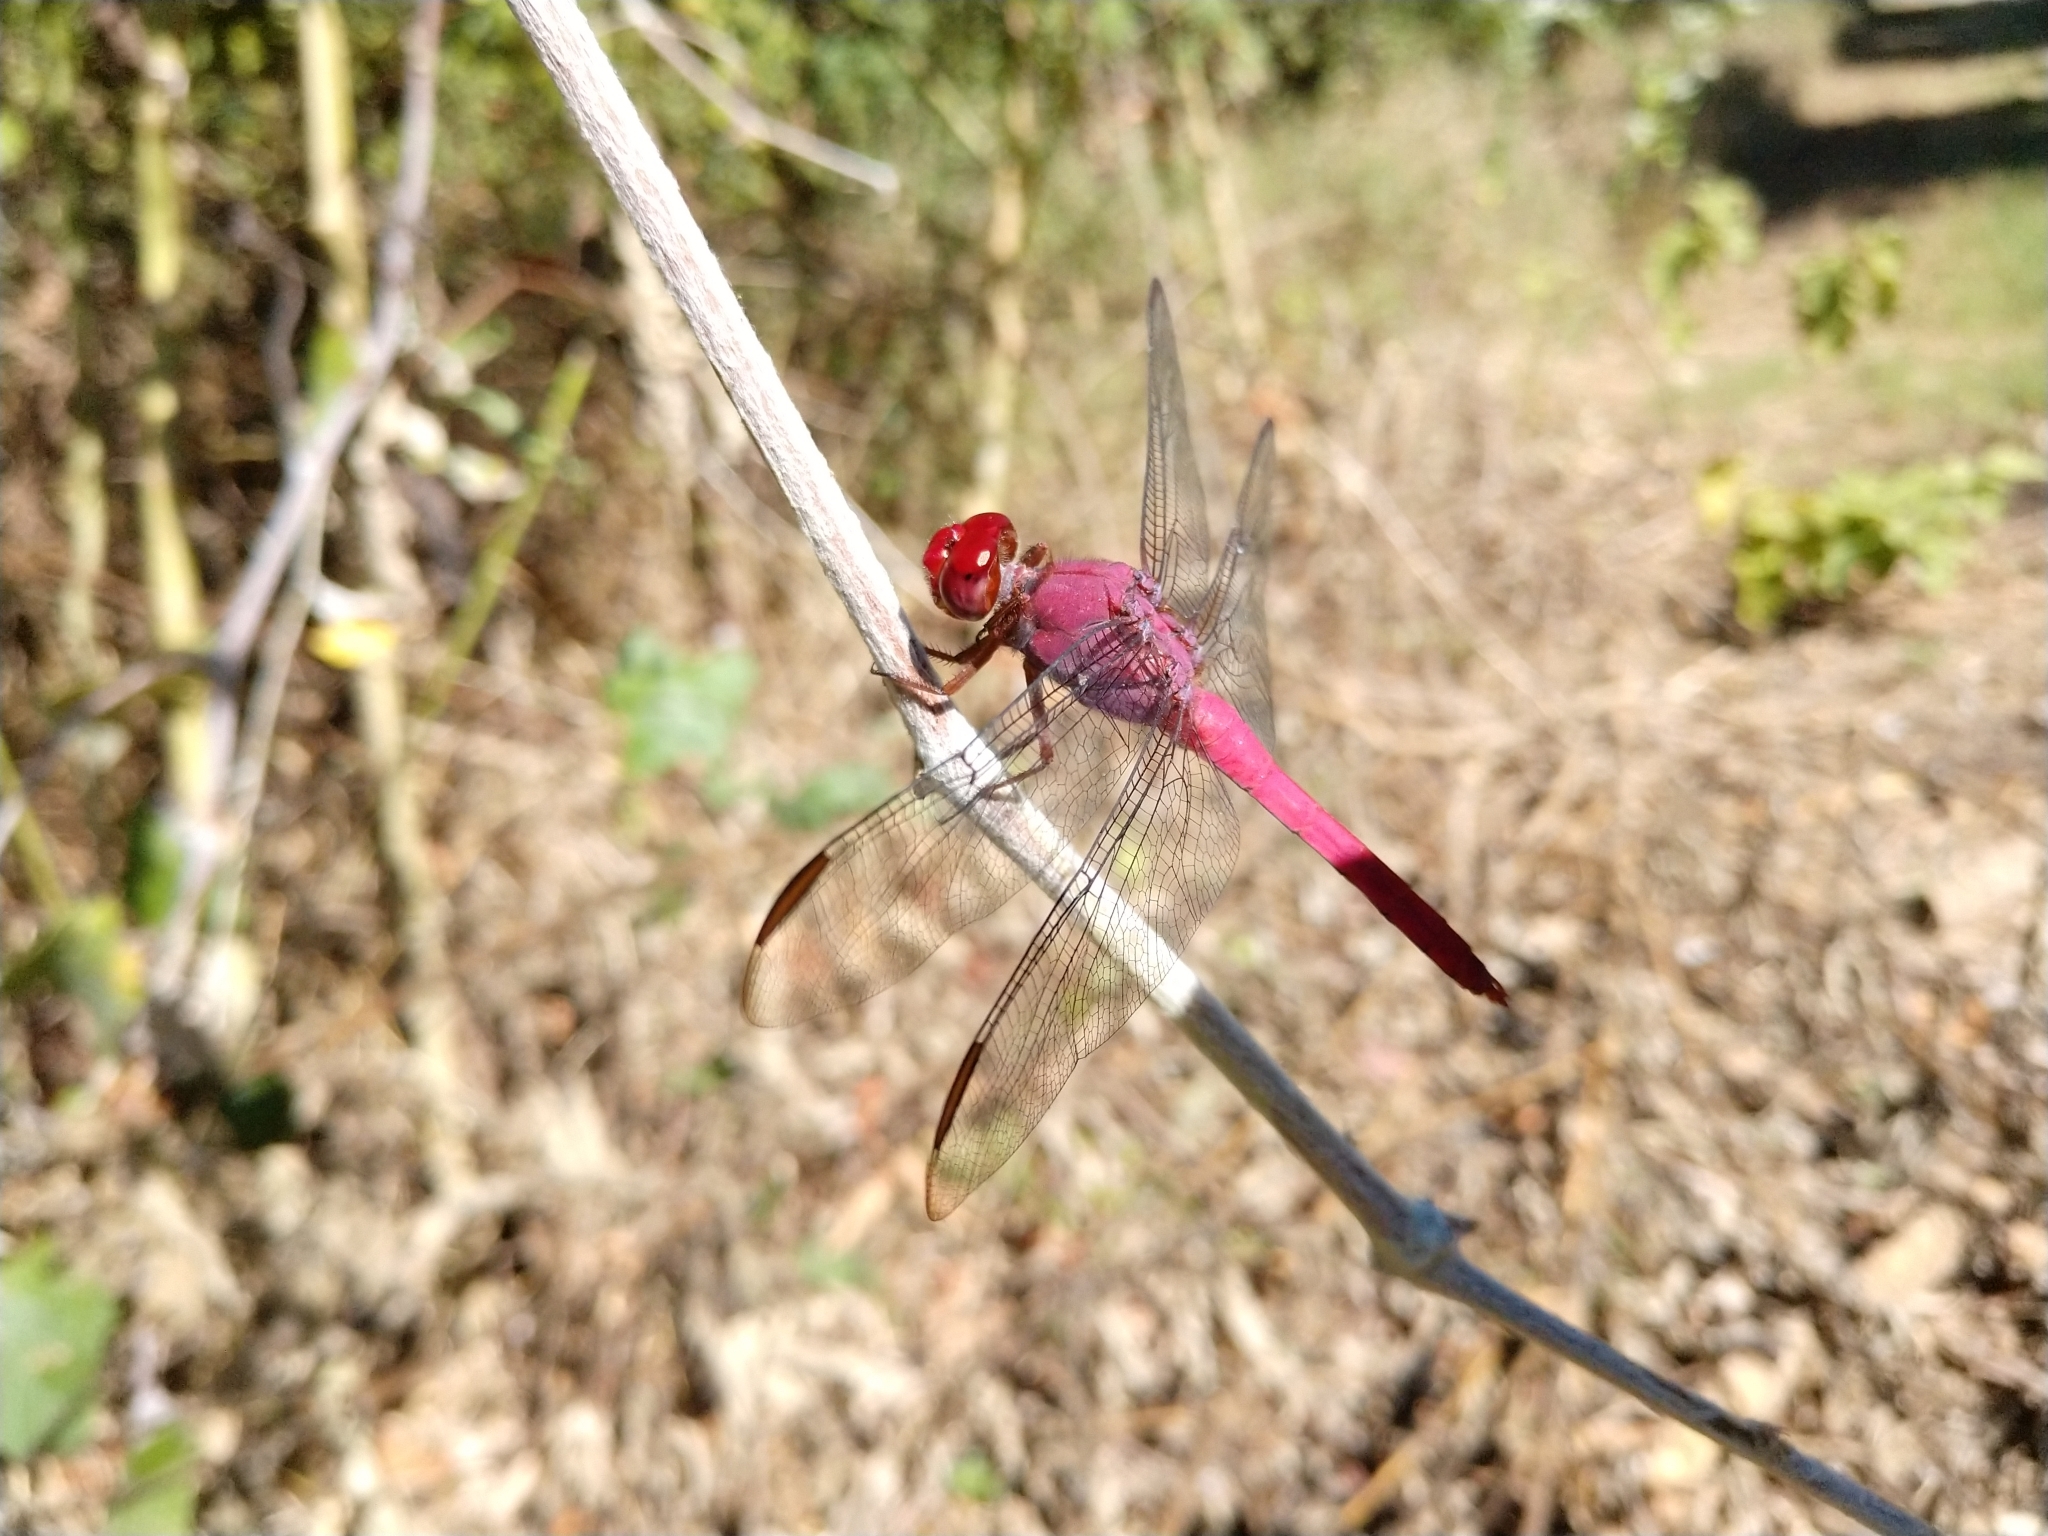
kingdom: Animalia
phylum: Arthropoda
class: Insecta
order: Odonata
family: Libellulidae
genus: Orthemis
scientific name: Orthemis discolor
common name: Carmine skimmer
